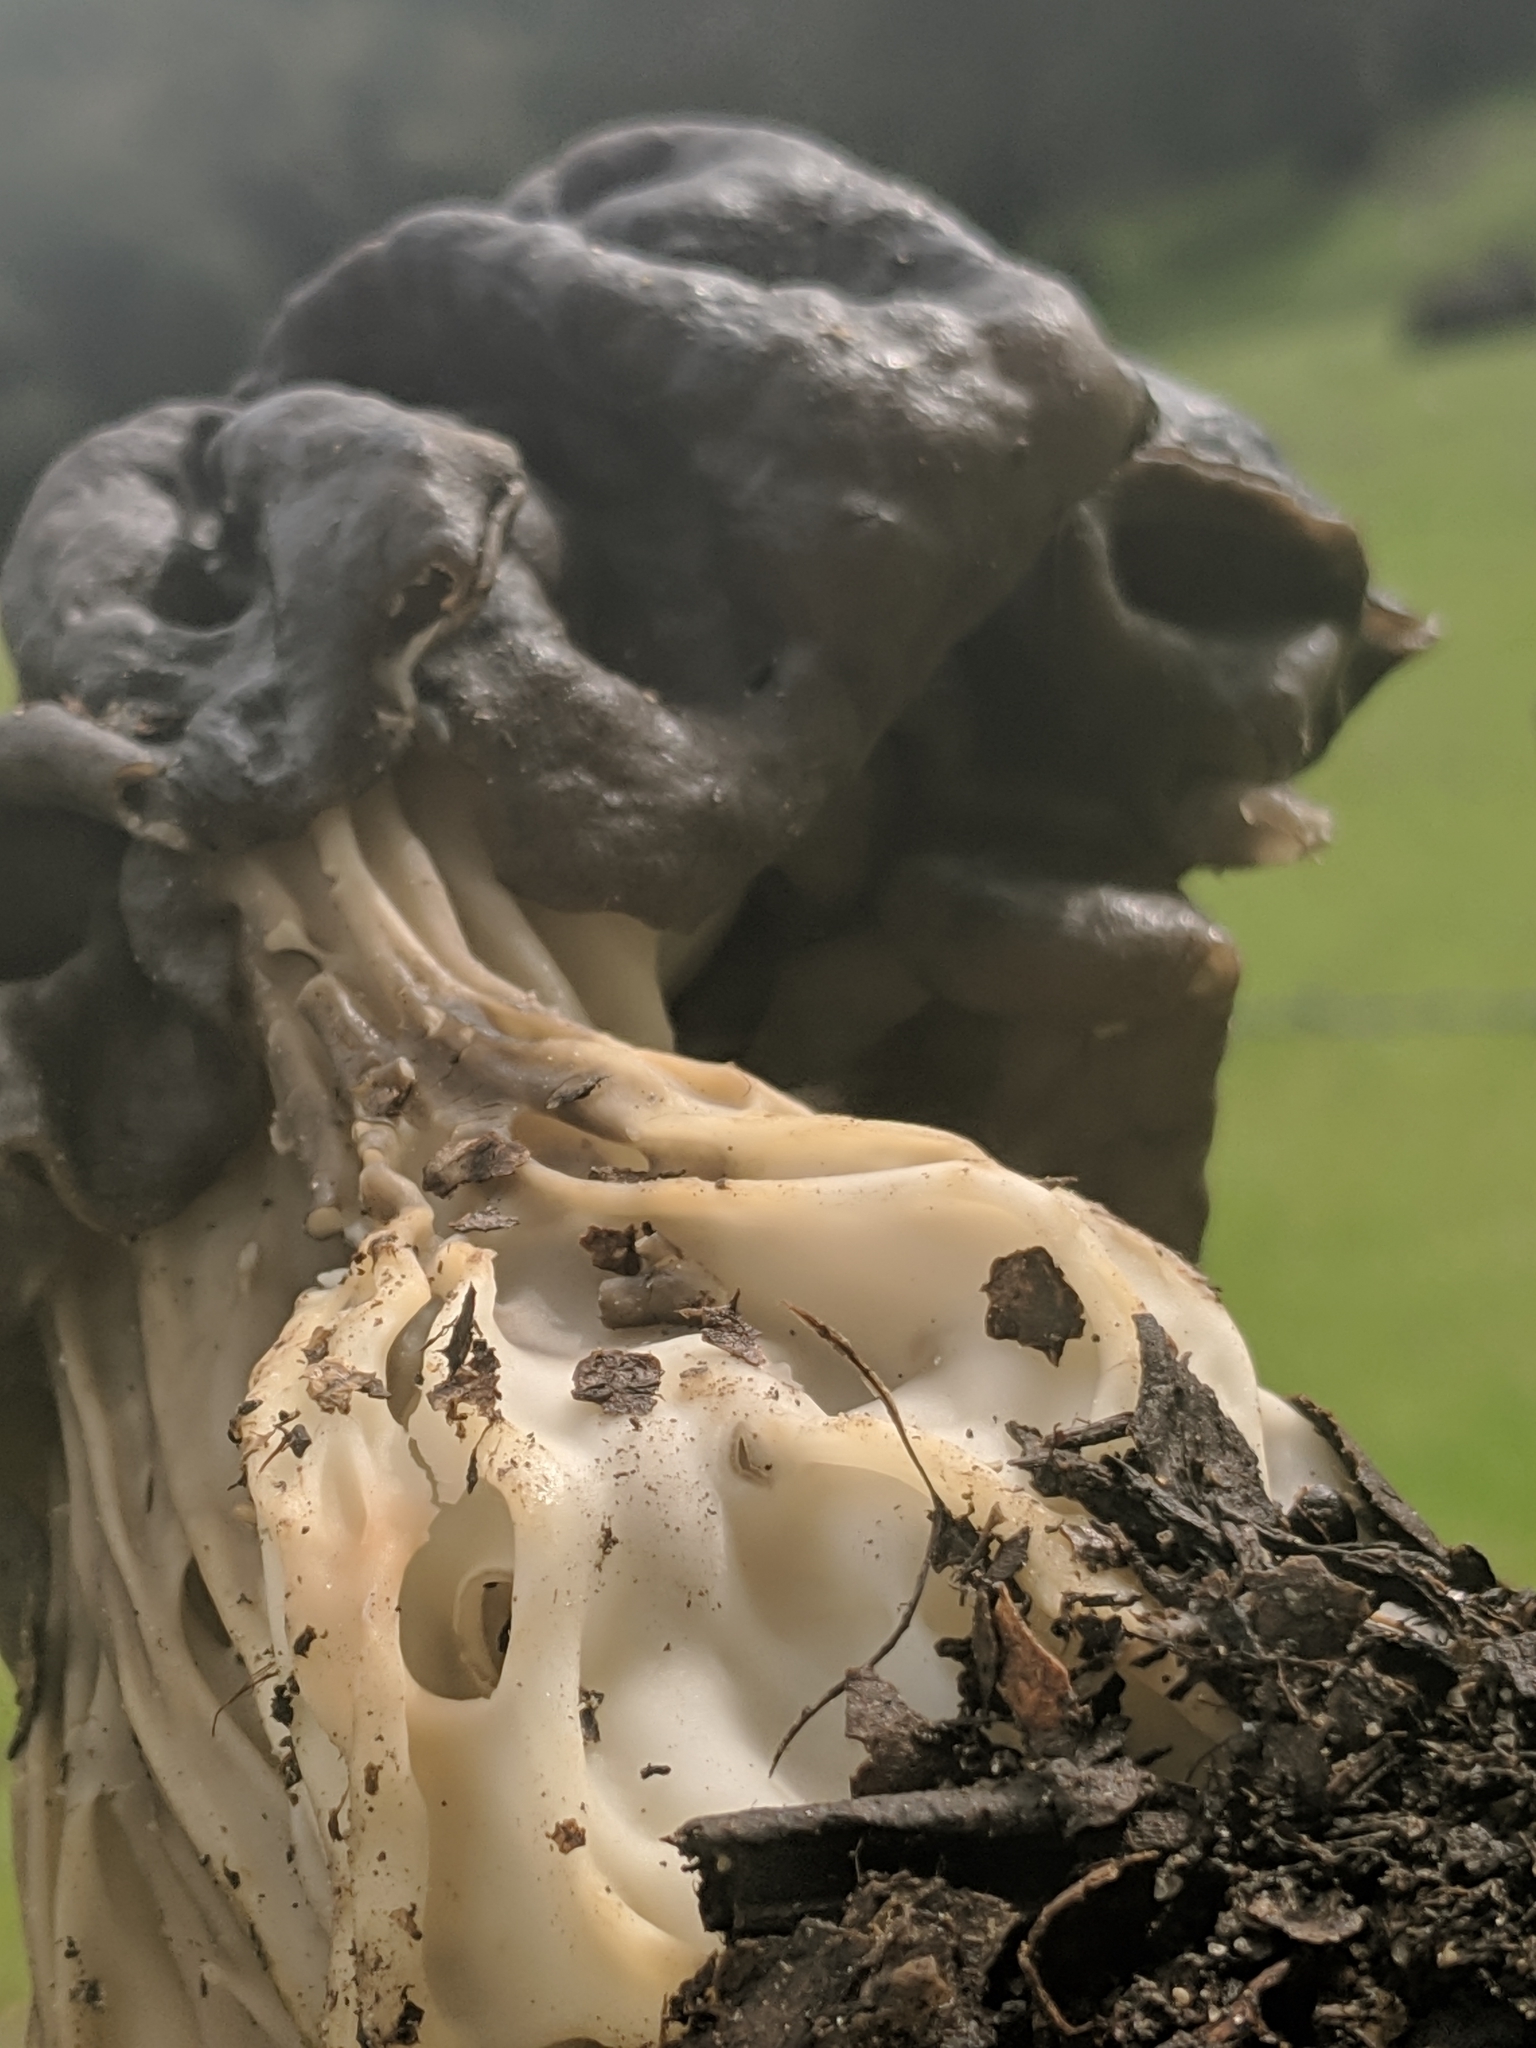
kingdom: Fungi
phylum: Ascomycota
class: Pezizomycetes
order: Pezizales
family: Helvellaceae
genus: Helvella
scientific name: Helvella dryophila
